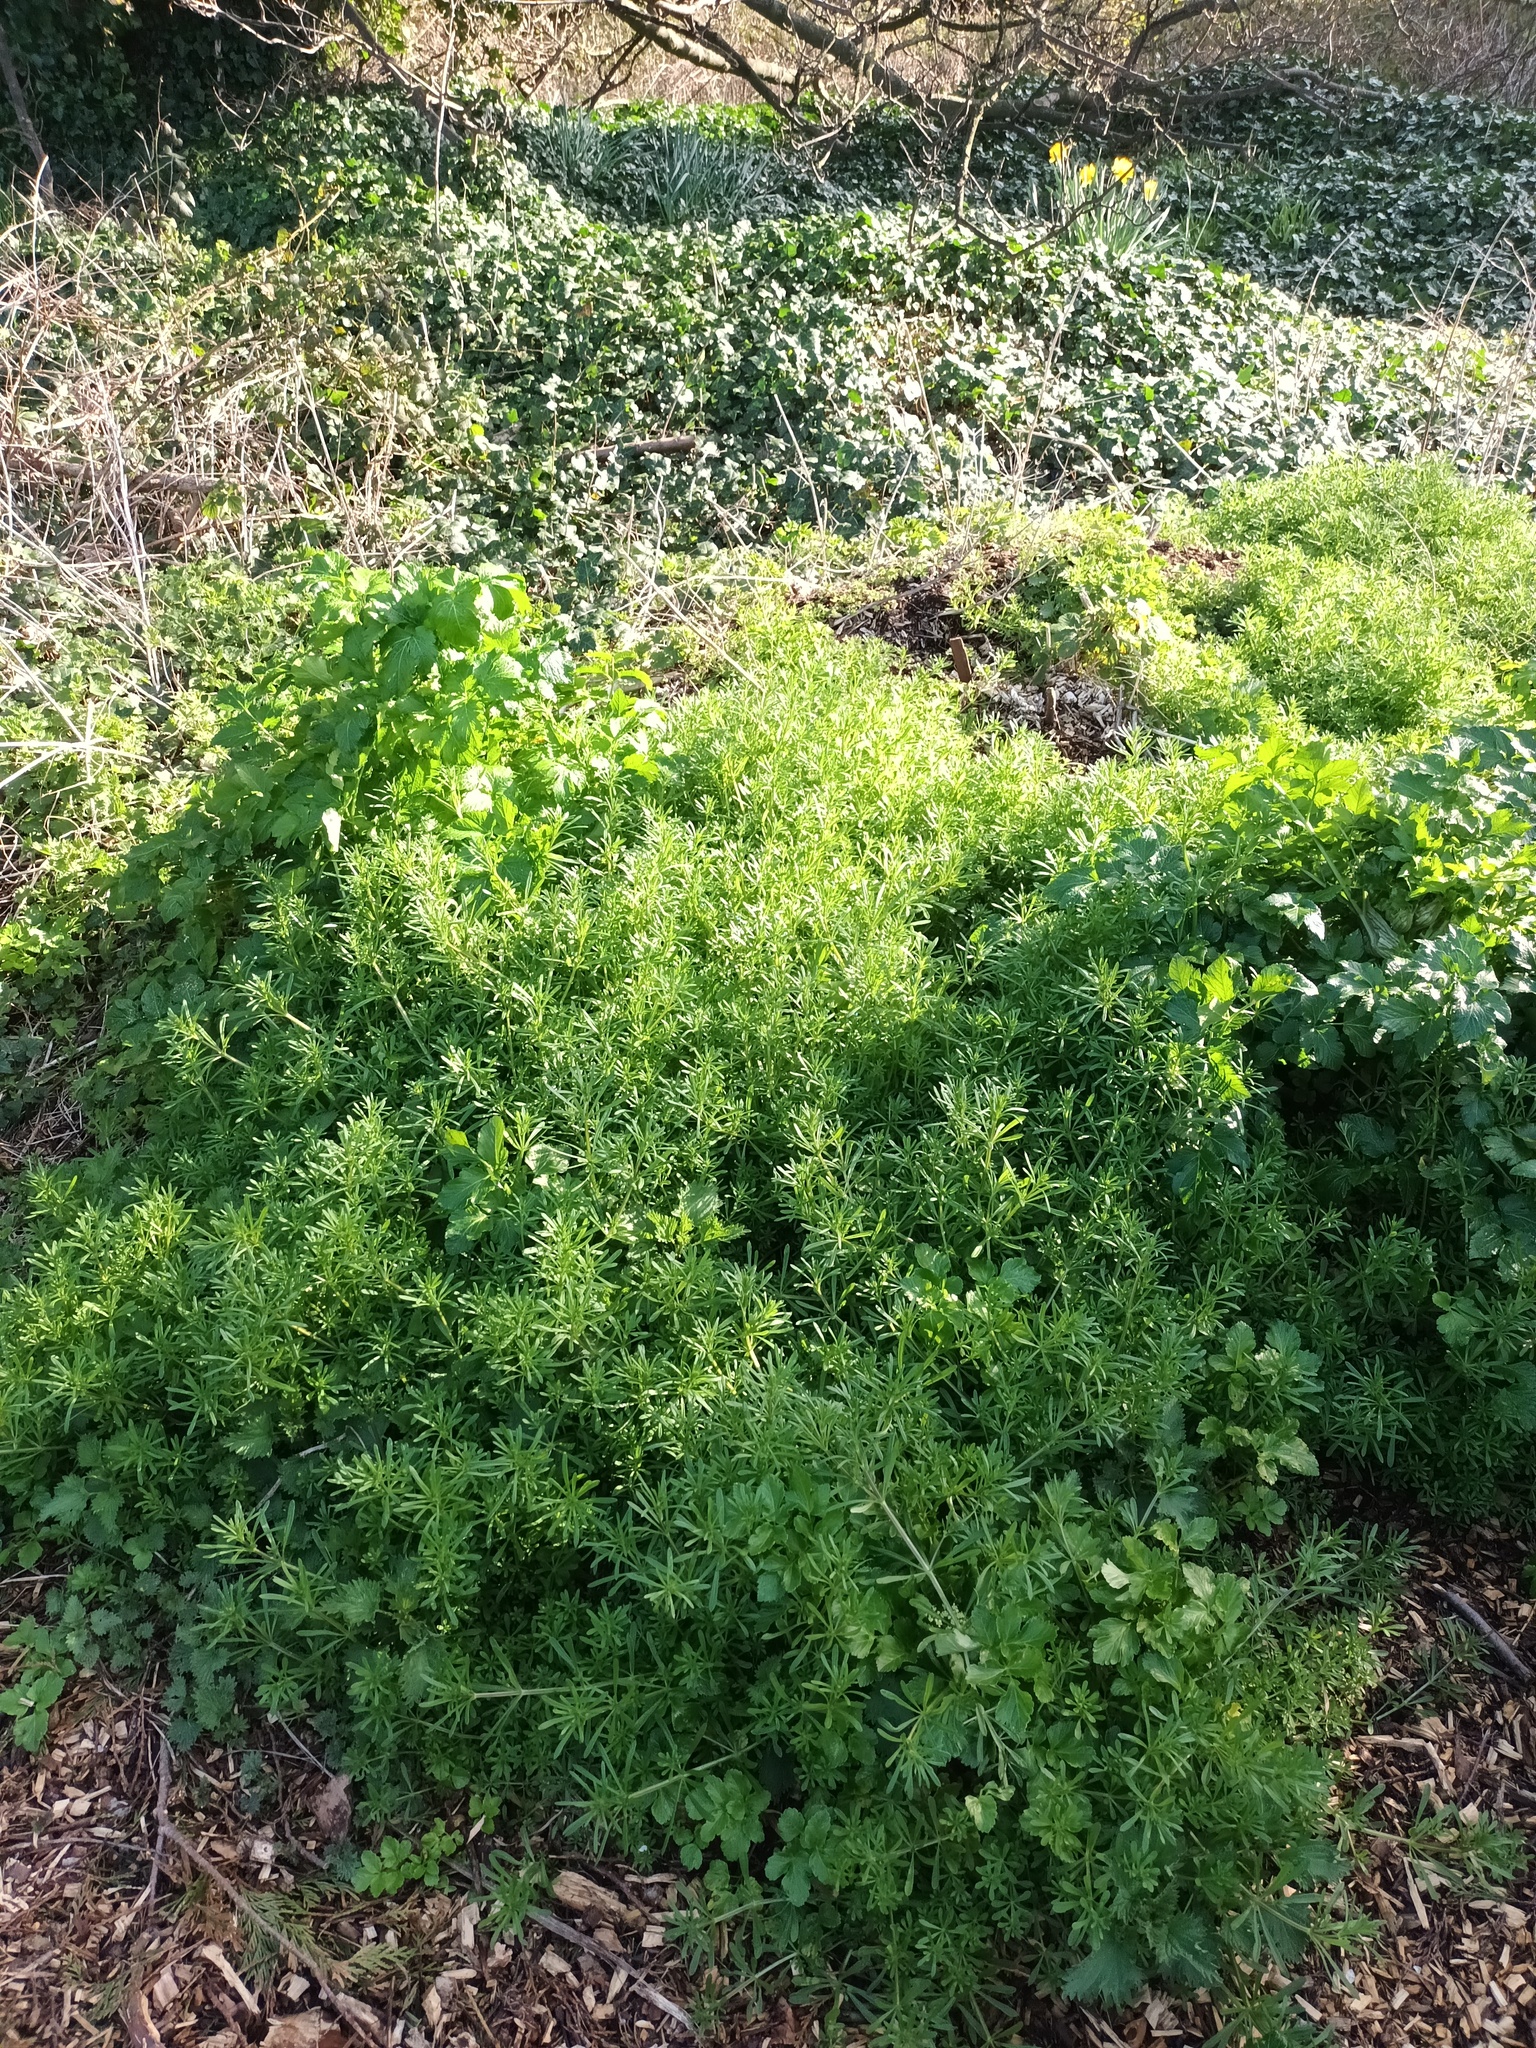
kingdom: Plantae
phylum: Tracheophyta
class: Magnoliopsida
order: Gentianales
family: Rubiaceae
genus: Galium
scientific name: Galium aparine
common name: Cleavers
